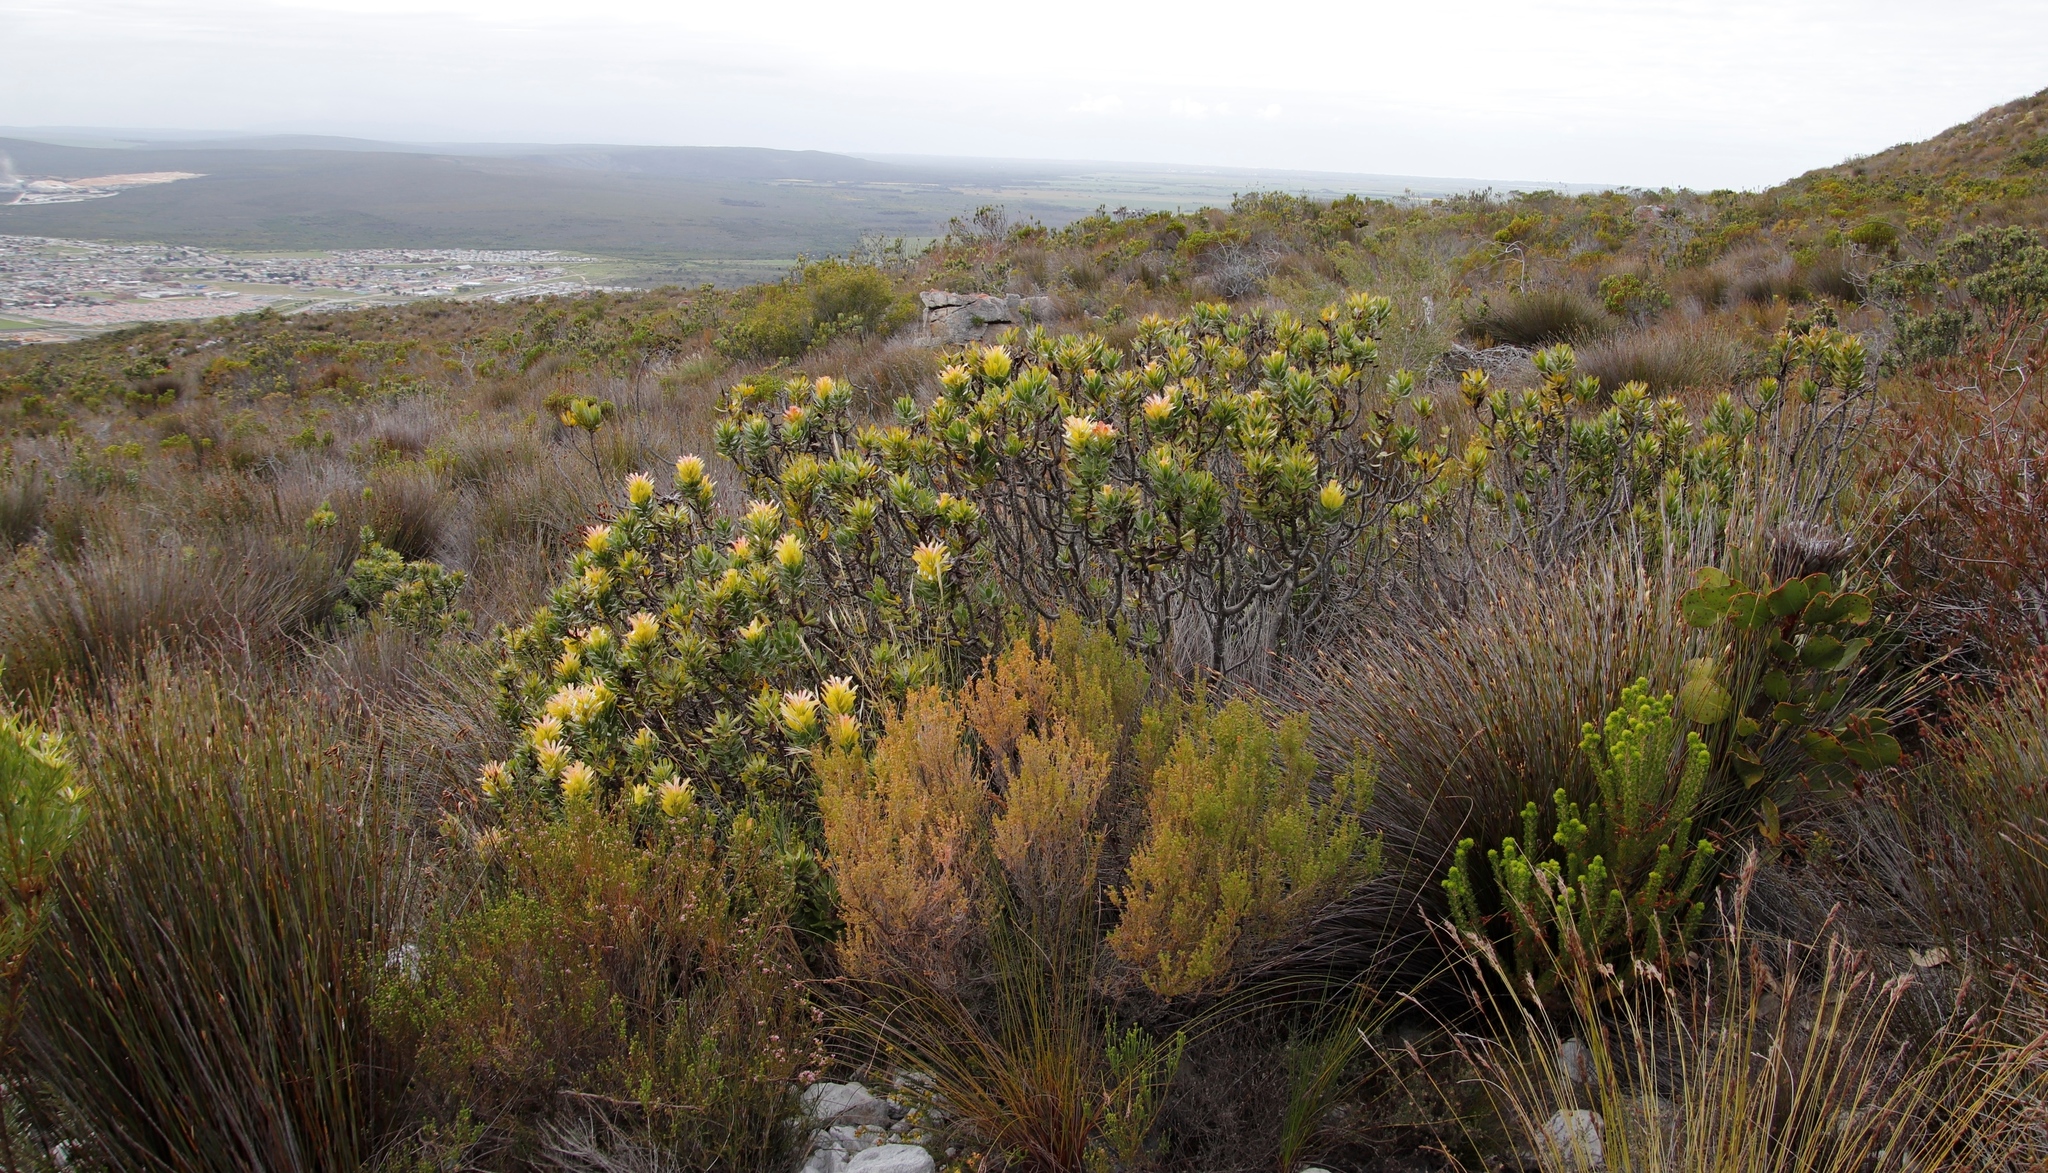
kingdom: Plantae
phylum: Tracheophyta
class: Magnoliopsida
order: Proteales
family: Proteaceae
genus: Mimetes
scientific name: Mimetes cucullatus
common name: Common pagoda
